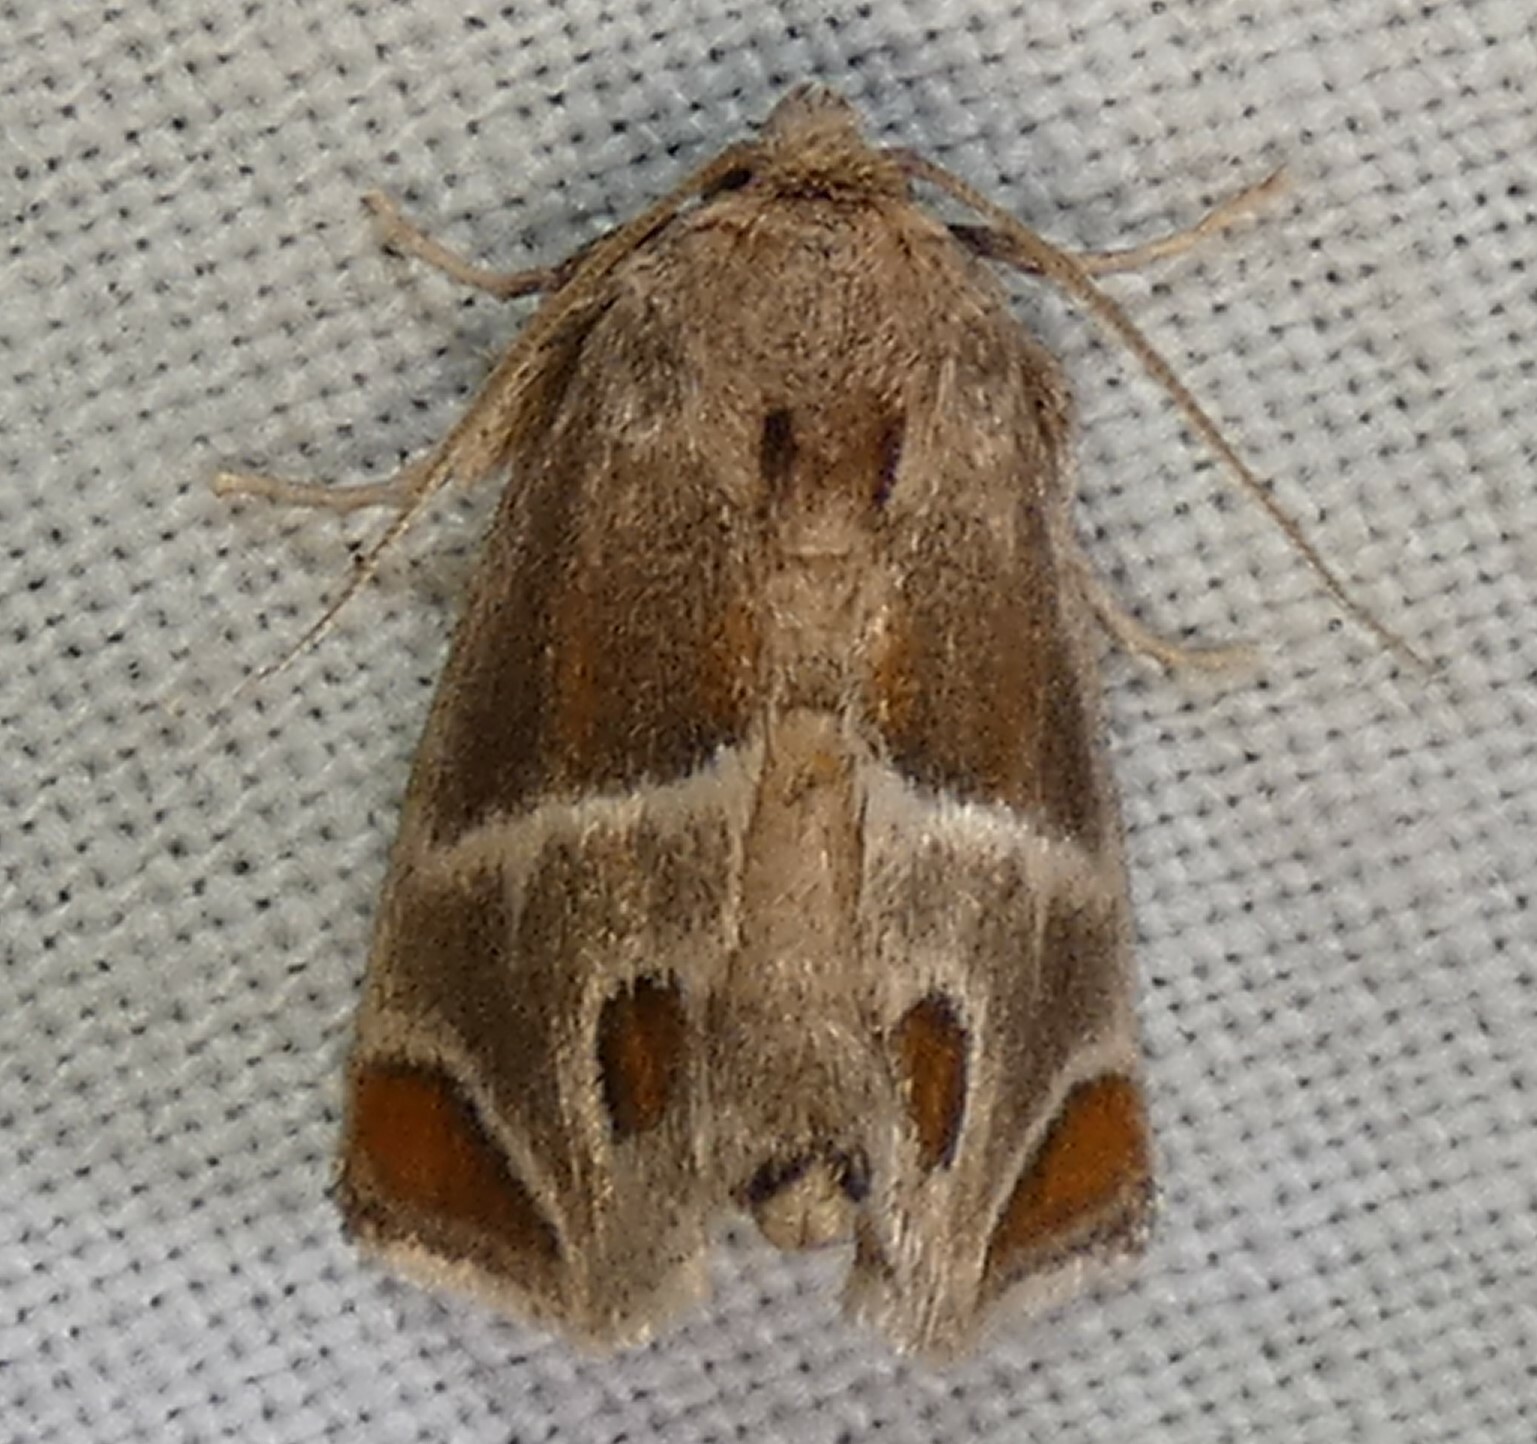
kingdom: Animalia
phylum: Arthropoda
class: Insecta
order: Lepidoptera
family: Limacodidae
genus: Apoda
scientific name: Apoda biguttata
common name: Shagreened slug moth
